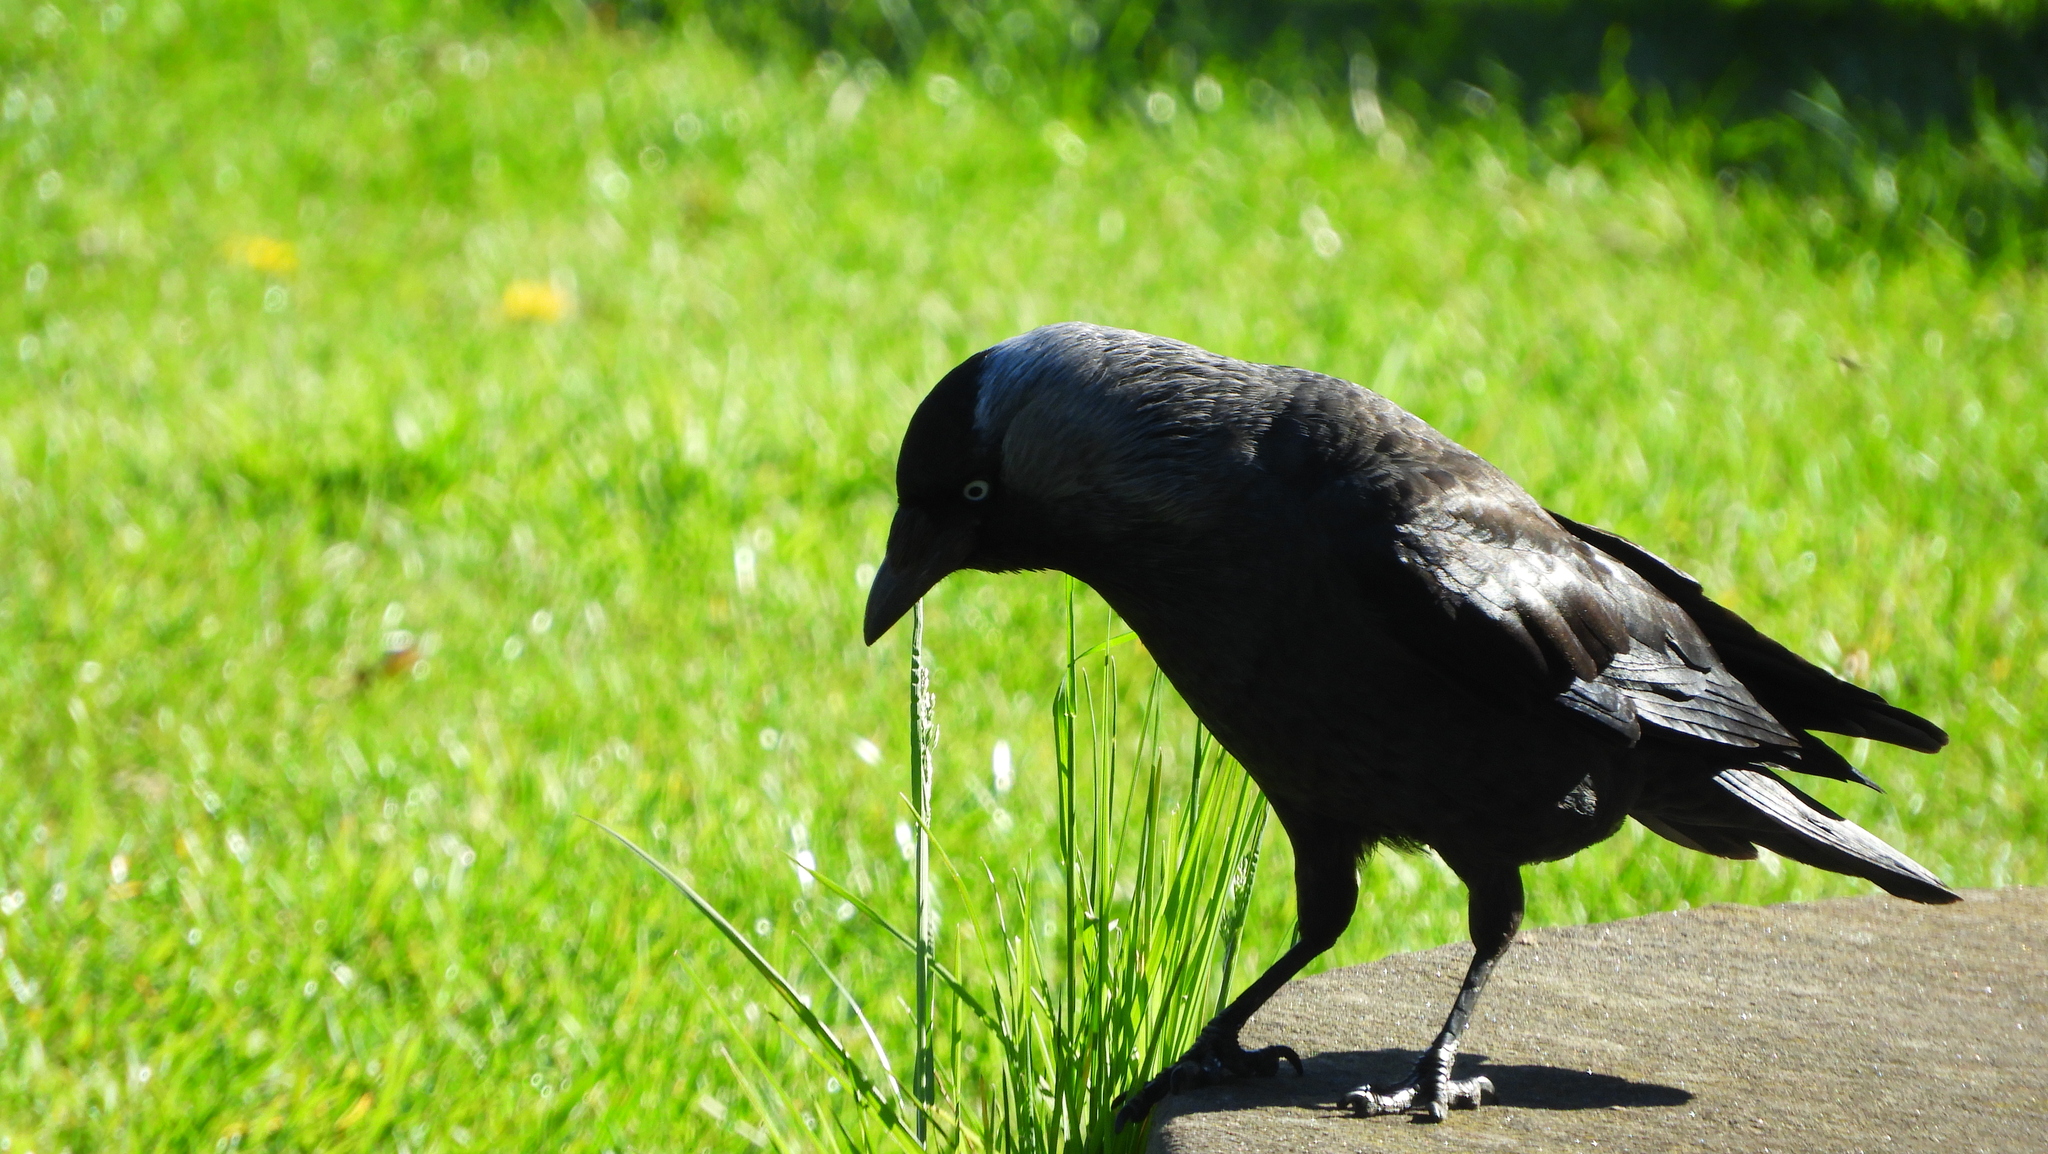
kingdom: Animalia
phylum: Chordata
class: Aves
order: Passeriformes
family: Corvidae
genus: Coloeus
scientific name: Coloeus monedula
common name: Western jackdaw
